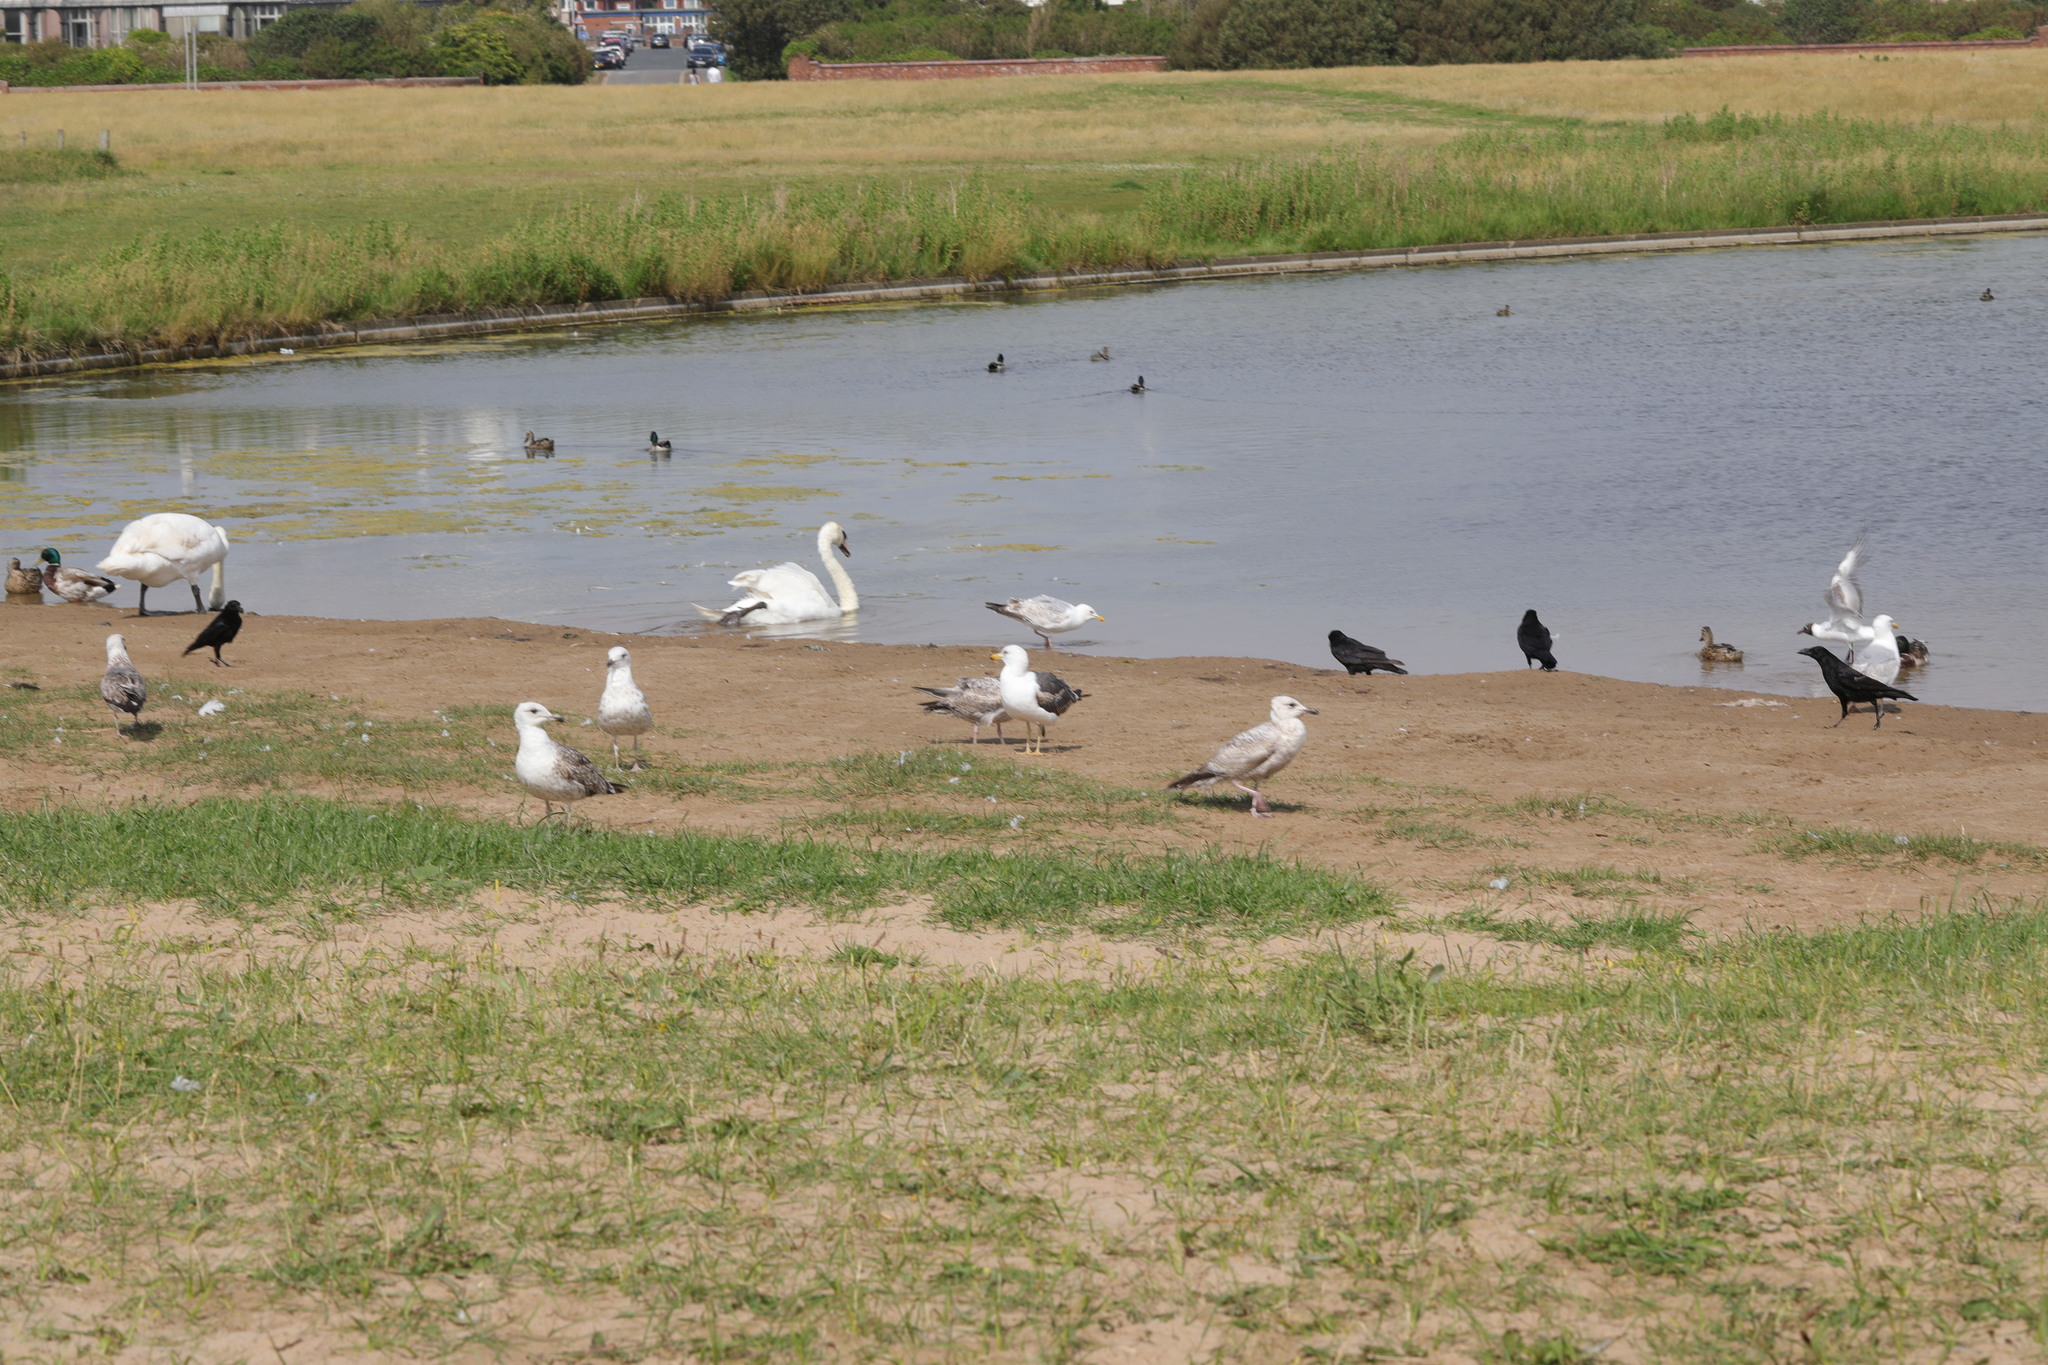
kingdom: Animalia
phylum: Chordata
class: Aves
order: Charadriiformes
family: Laridae
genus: Larus
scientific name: Larus argentatus
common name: Herring gull
